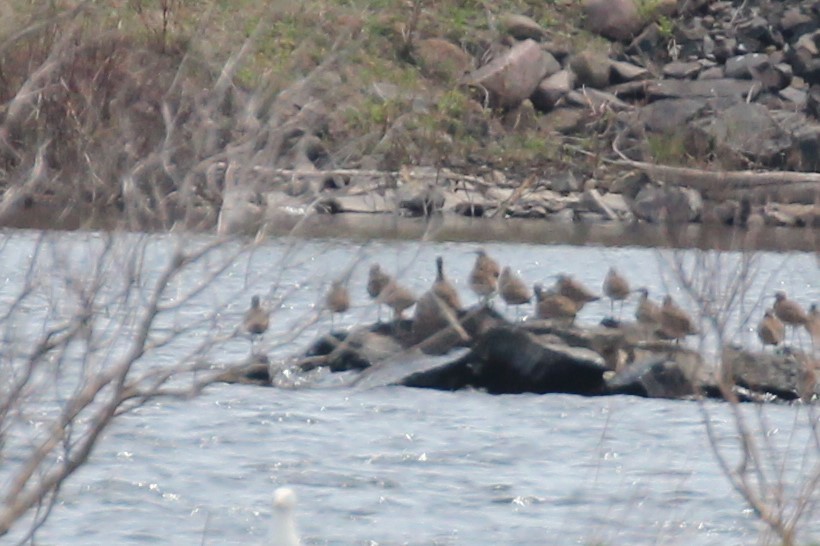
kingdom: Animalia
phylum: Chordata
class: Aves
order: Charadriiformes
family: Scolopacidae
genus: Numenius
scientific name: Numenius phaeopus
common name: Whimbrel
